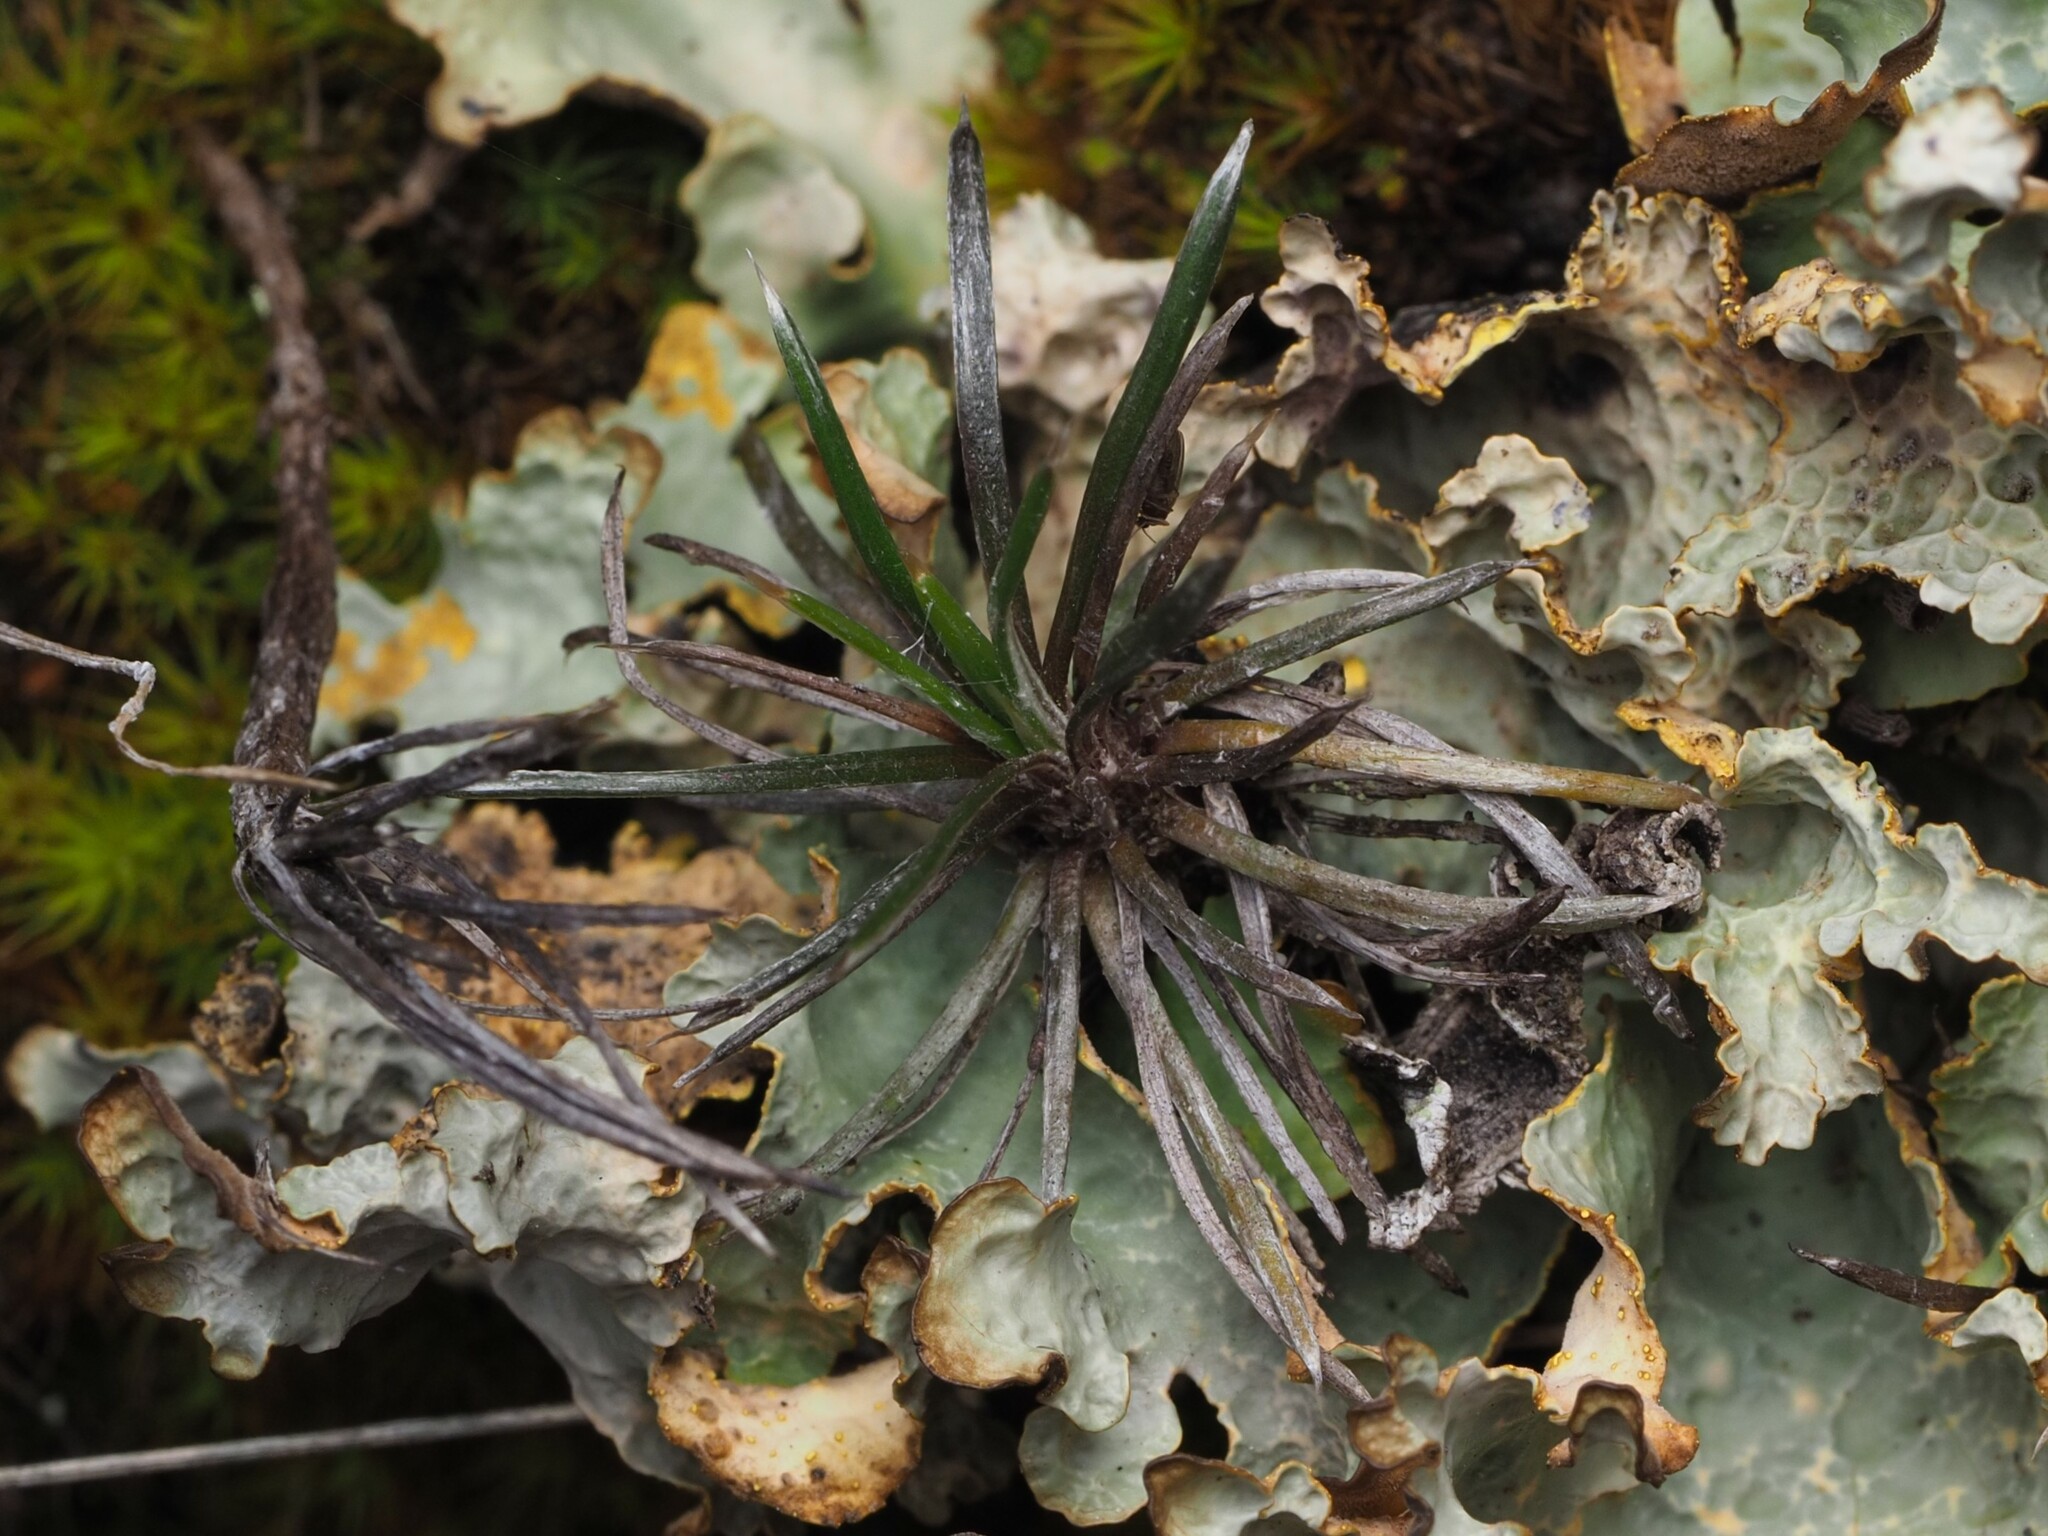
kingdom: Plantae
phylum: Tracheophyta
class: Magnoliopsida
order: Asterales
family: Asteraceae
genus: Celmisia
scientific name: Celmisia laricifolia
